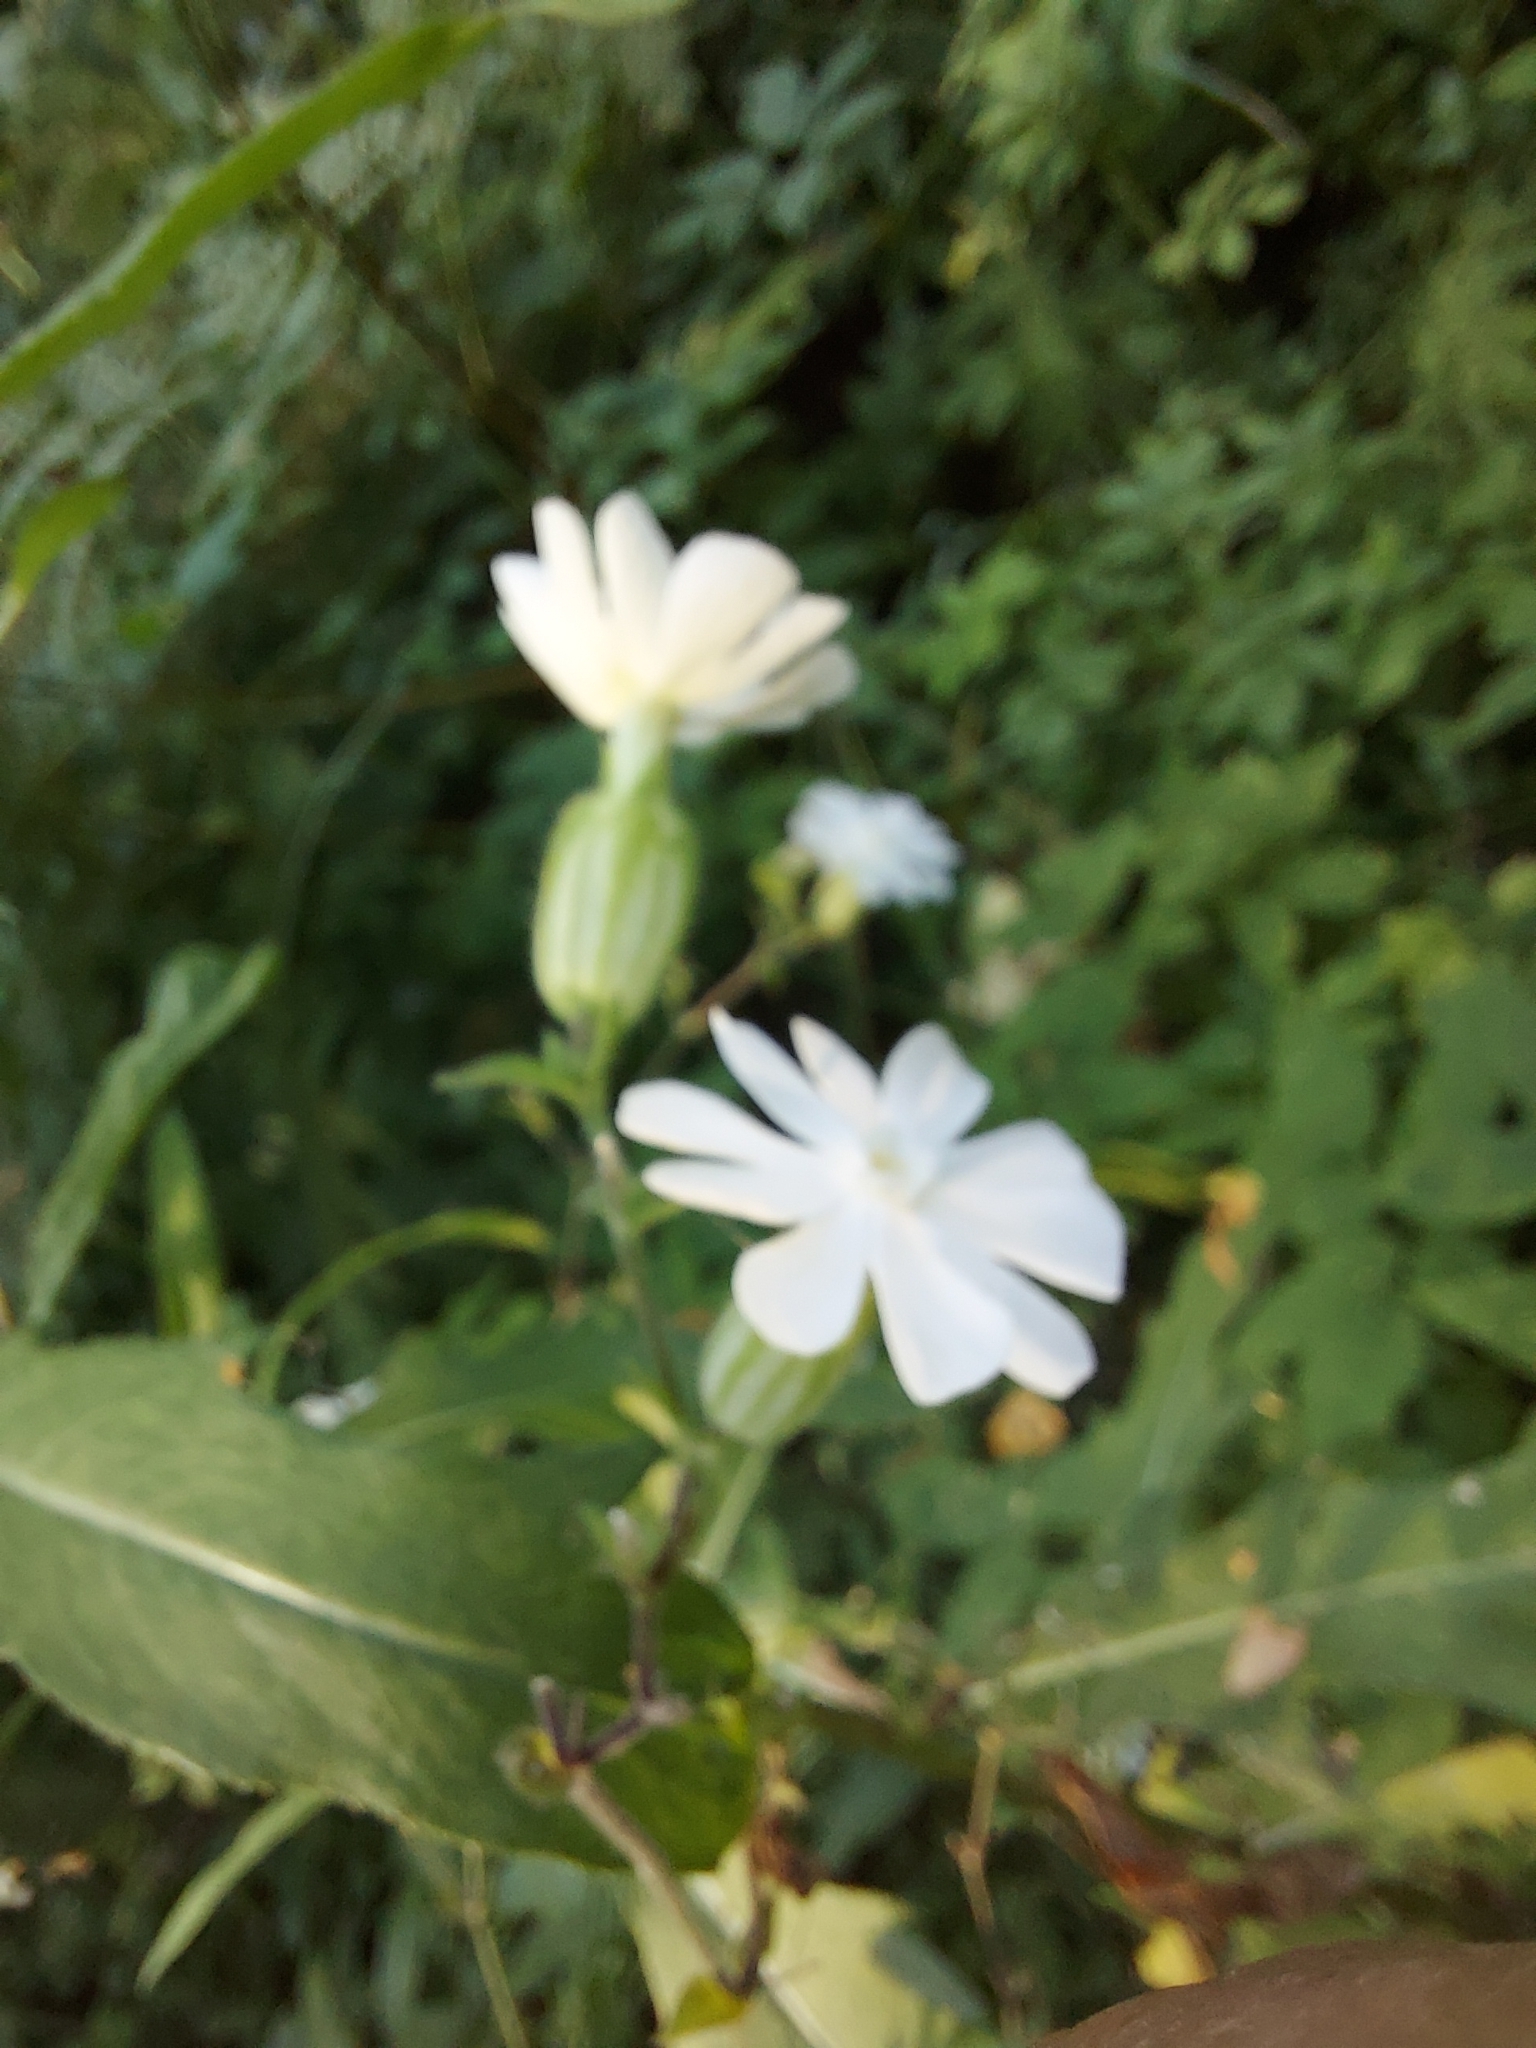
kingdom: Plantae
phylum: Tracheophyta
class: Magnoliopsida
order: Caryophyllales
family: Caryophyllaceae
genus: Silene
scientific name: Silene latifolia
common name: White campion
